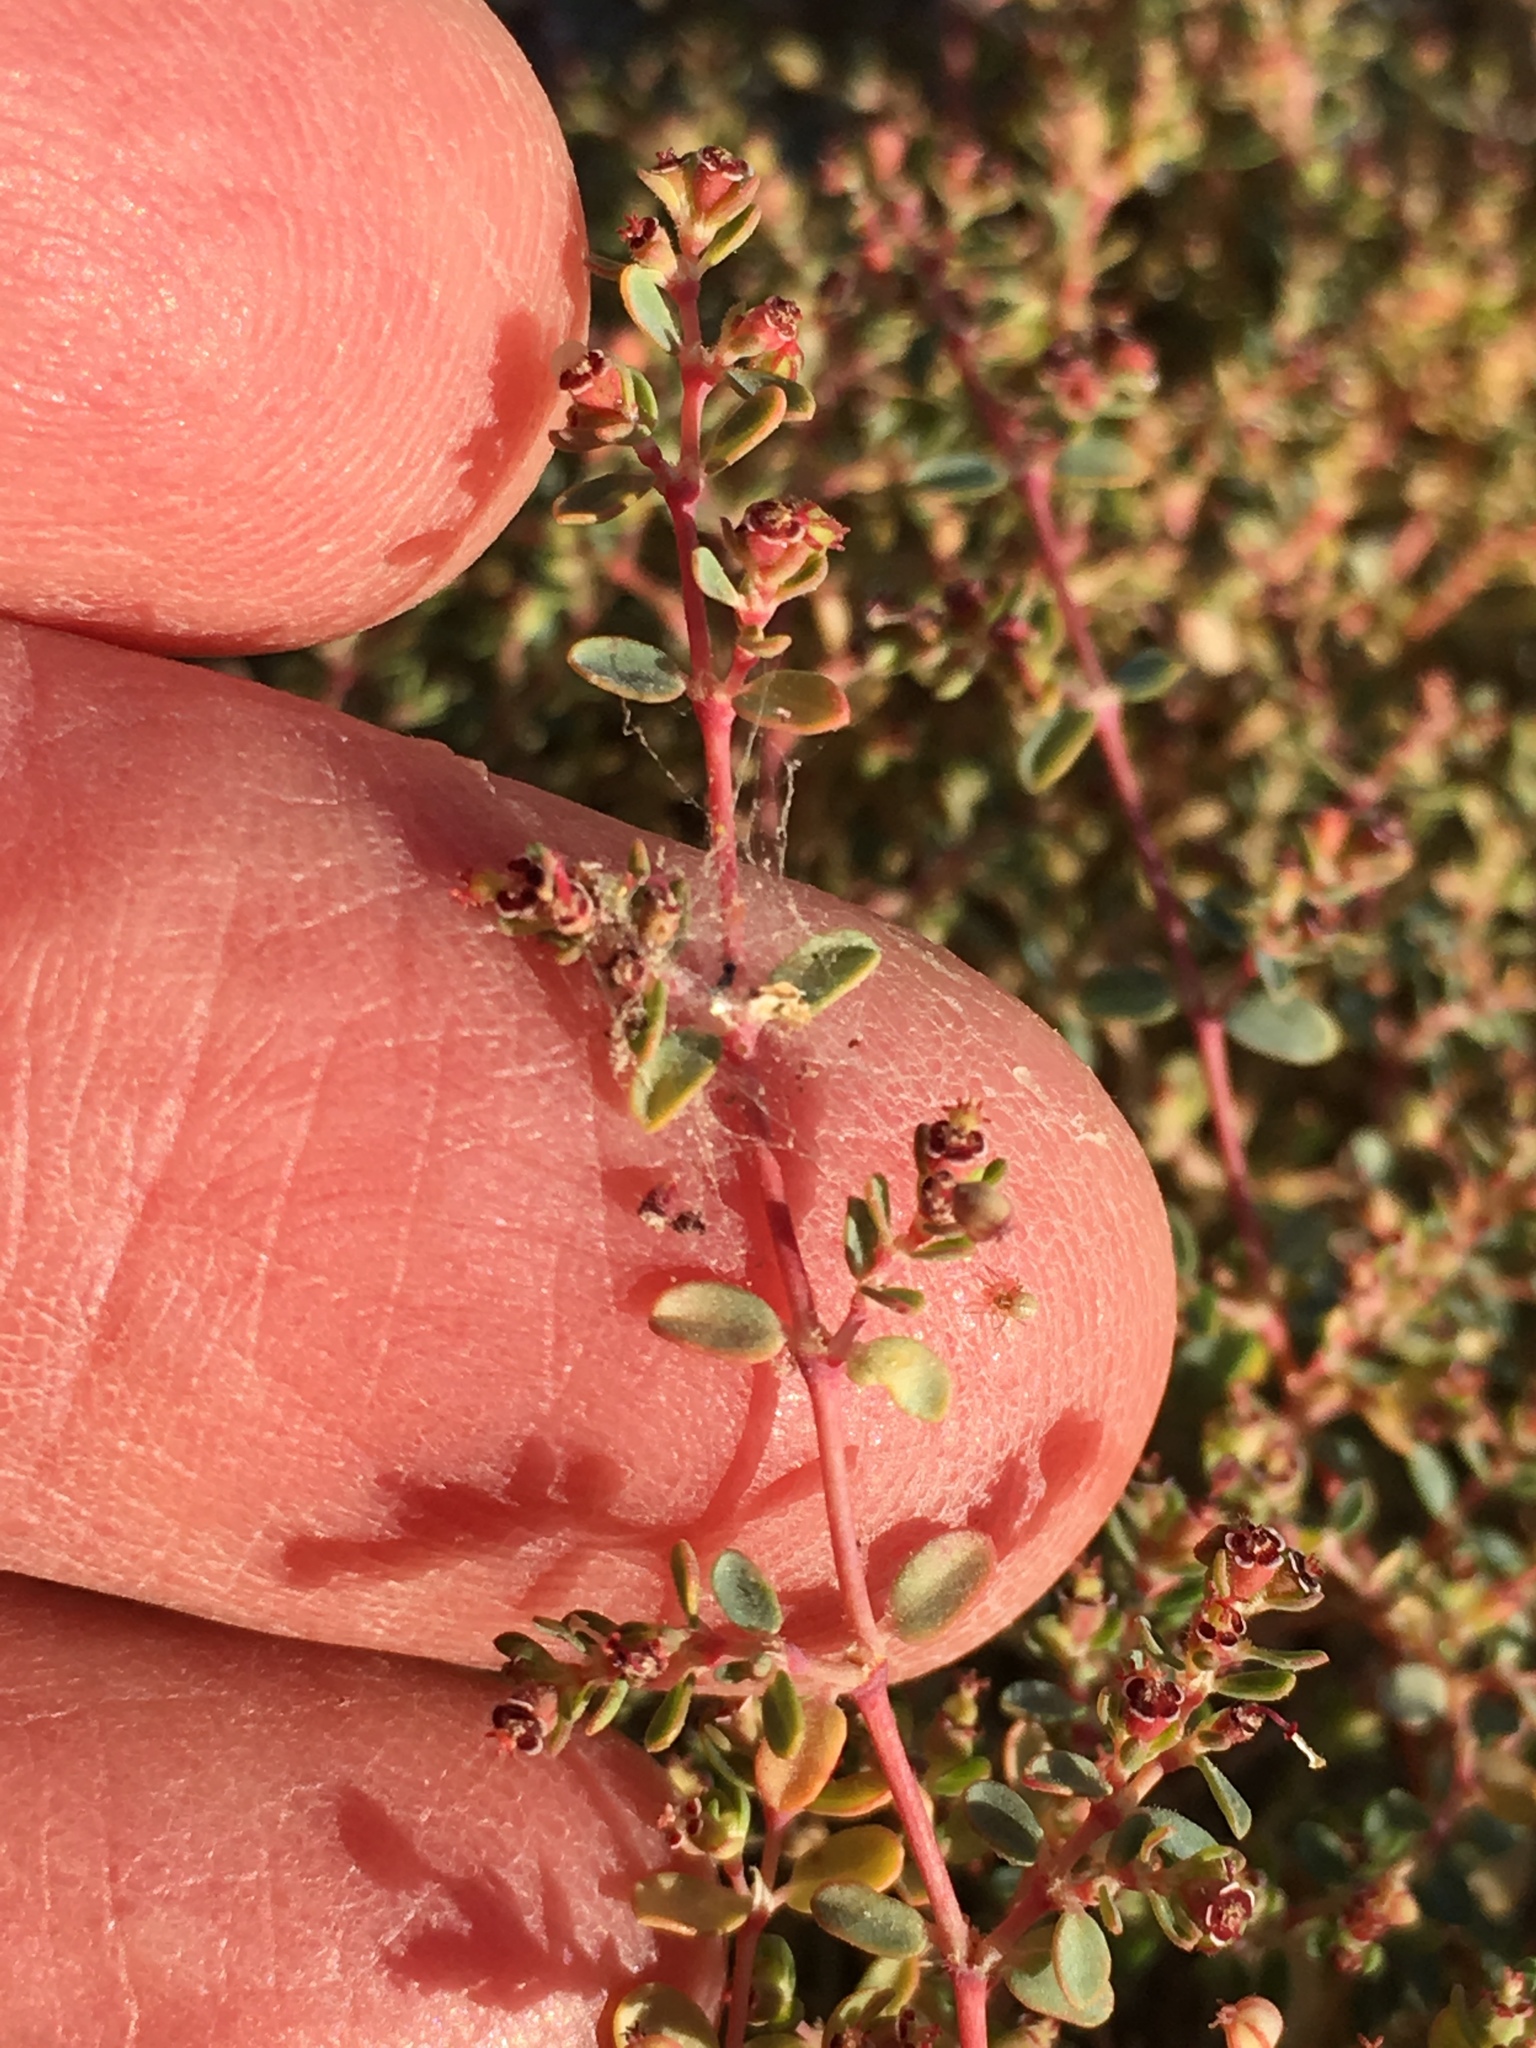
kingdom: Plantae
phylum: Tracheophyta
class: Magnoliopsida
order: Malpighiales
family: Euphorbiaceae
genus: Euphorbia
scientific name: Euphorbia polycarpa
